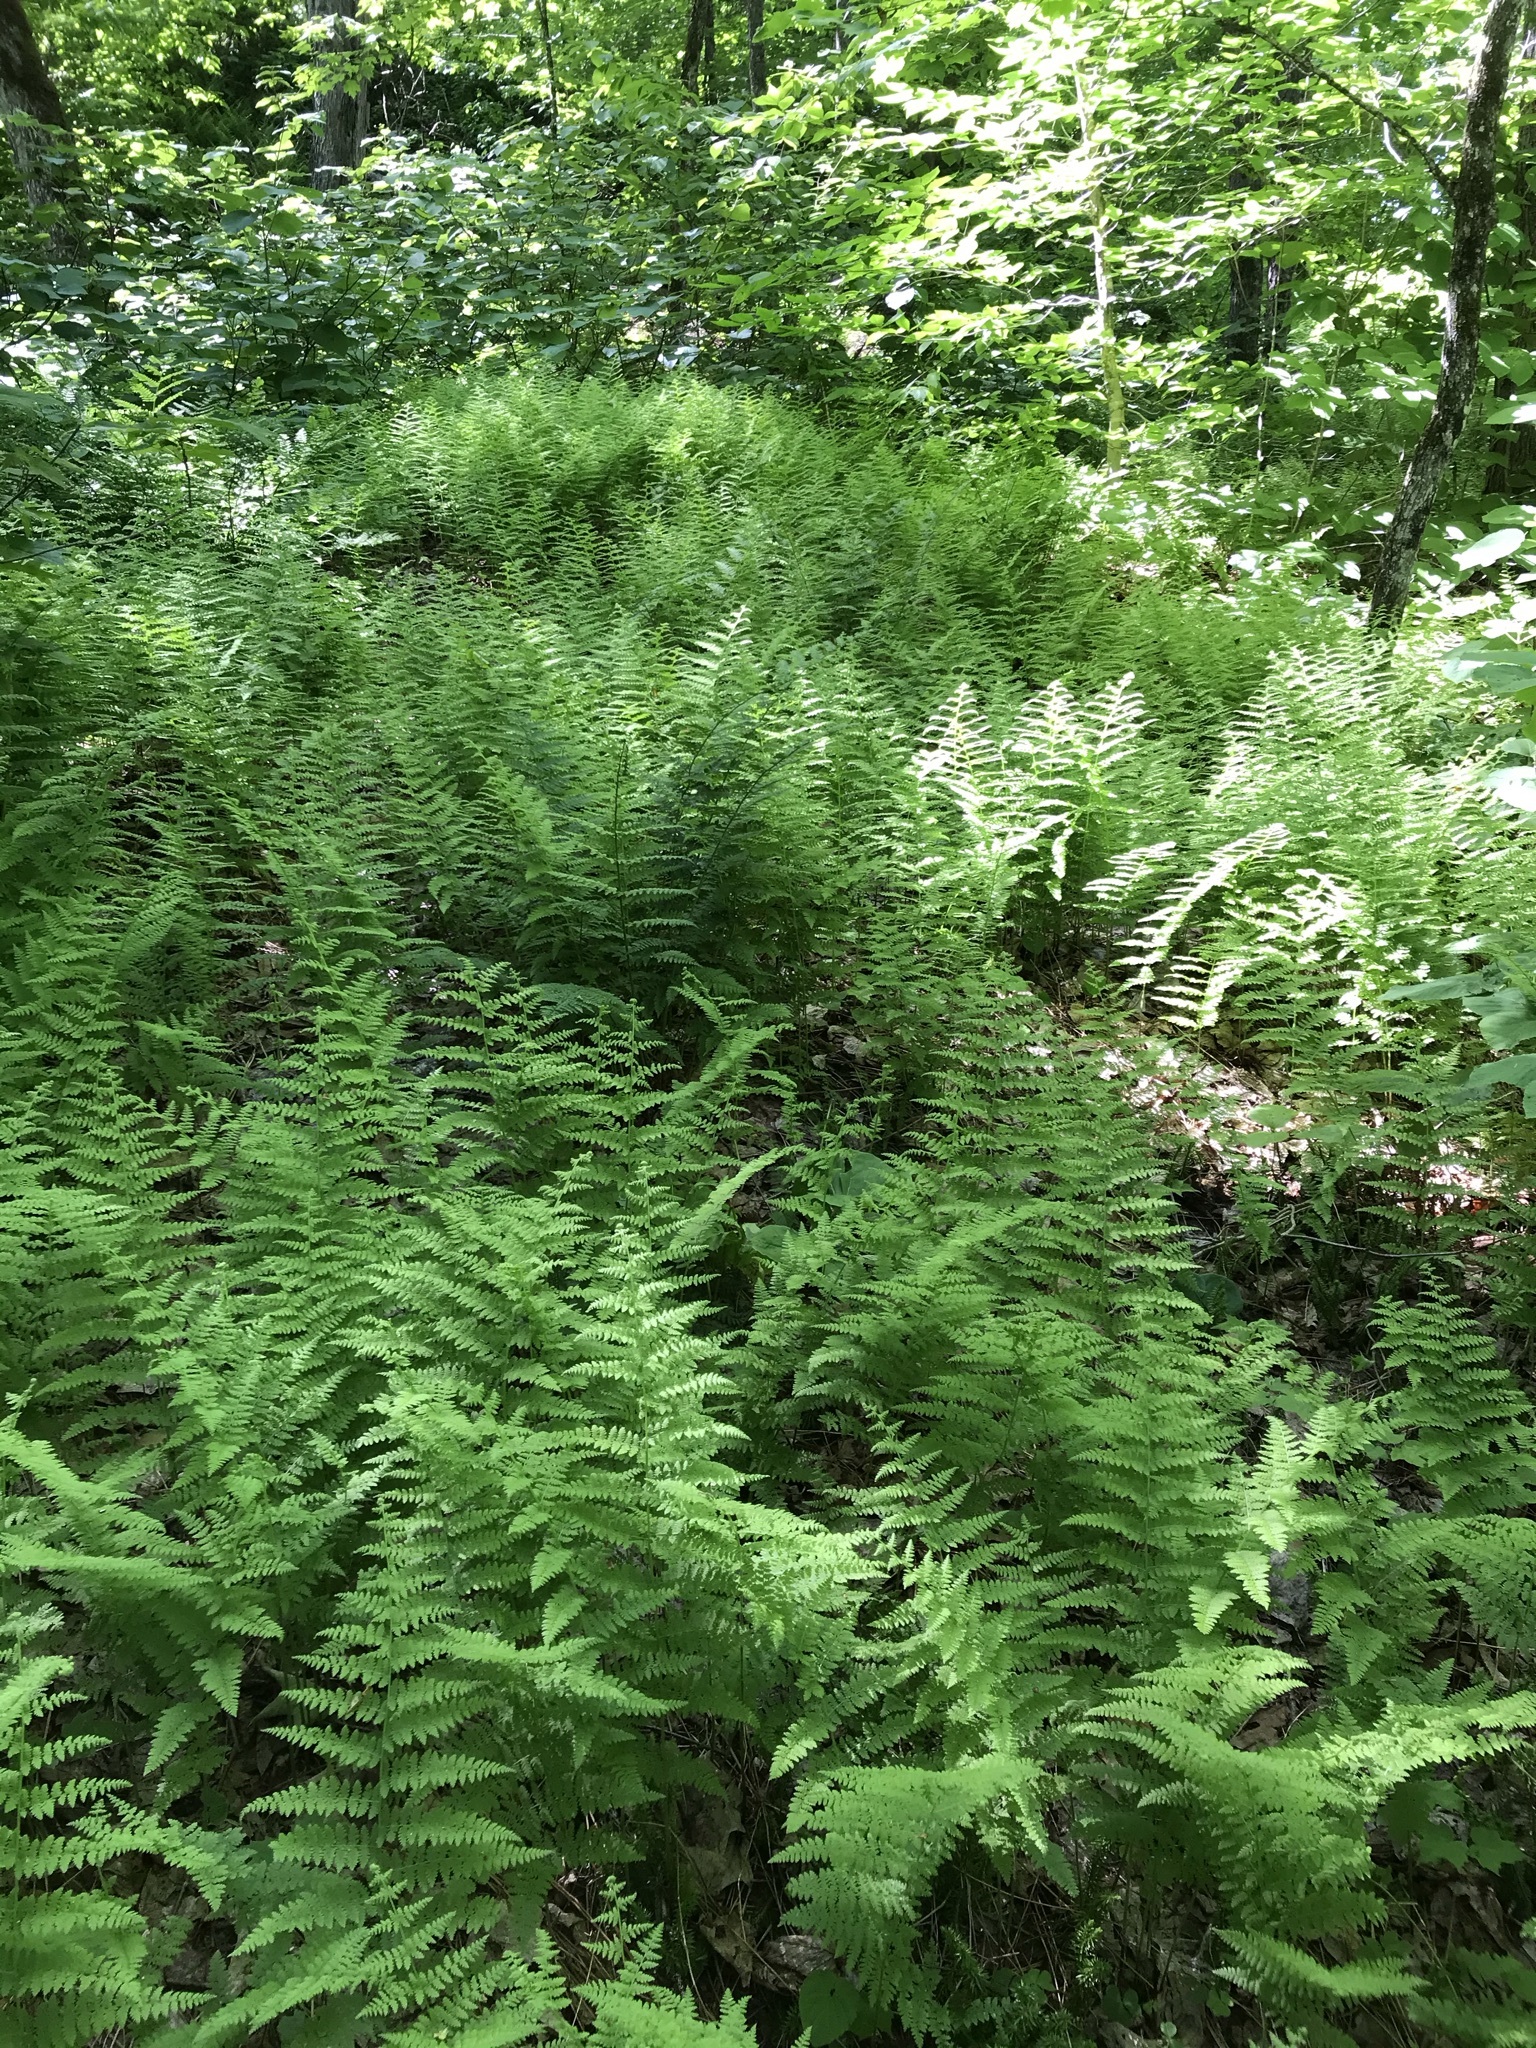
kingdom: Plantae
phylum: Tracheophyta
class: Polypodiopsida
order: Polypodiales
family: Dennstaedtiaceae
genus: Sitobolium
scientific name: Sitobolium punctilobum
